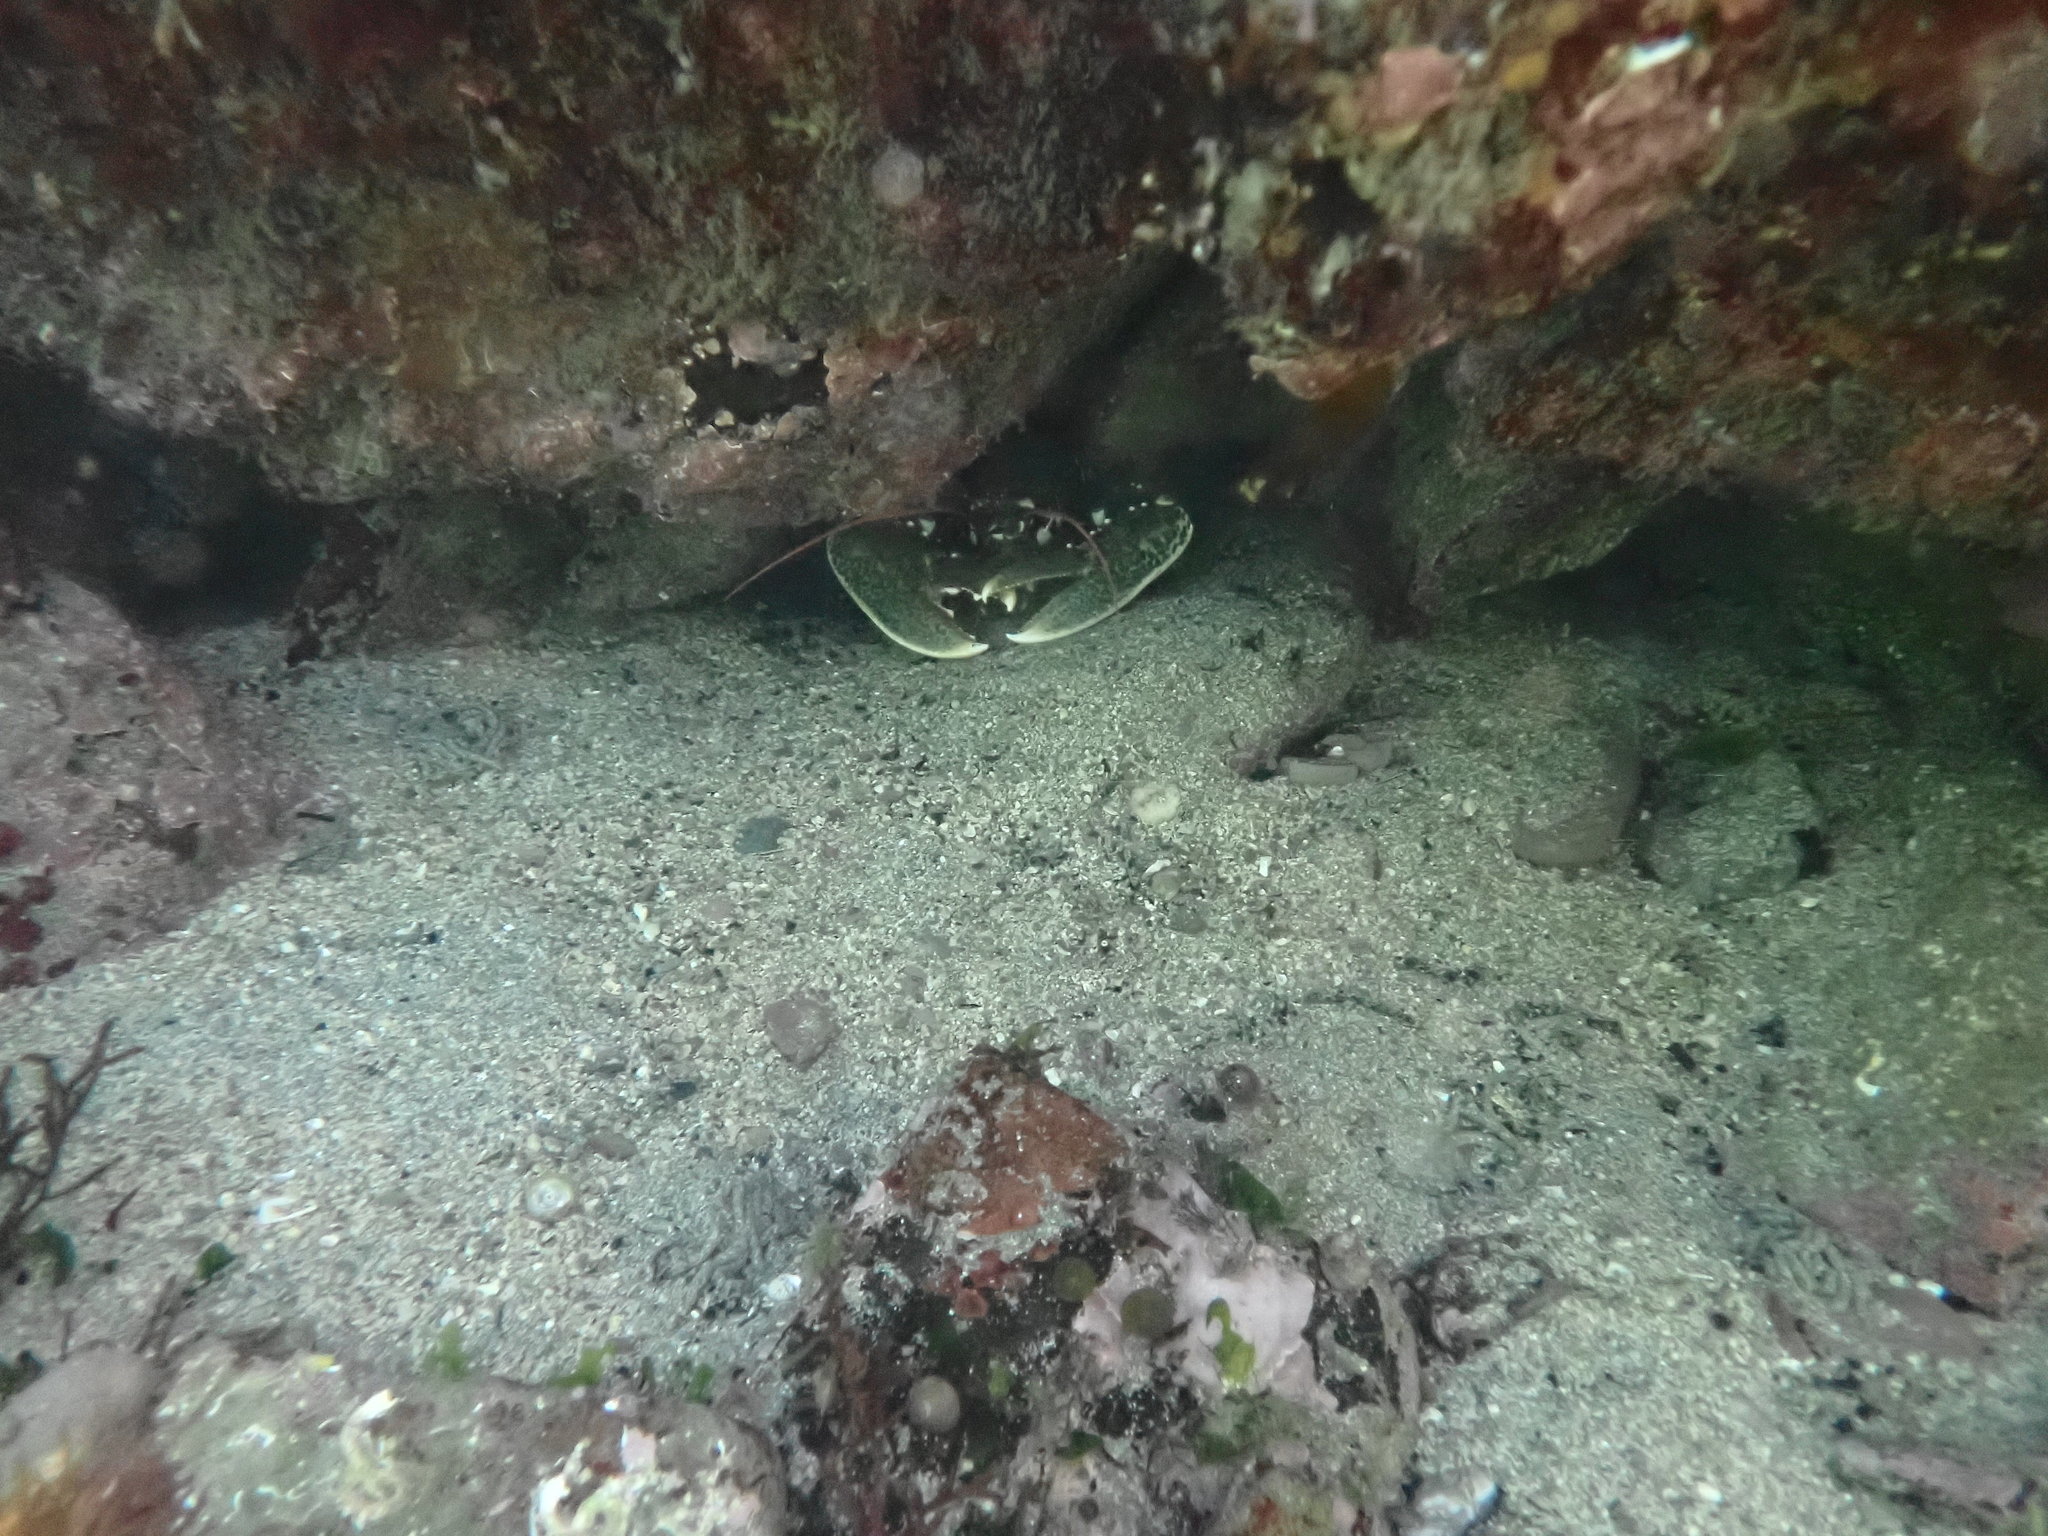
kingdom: Animalia
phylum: Arthropoda
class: Malacostraca
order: Decapoda
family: Nephropidae
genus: Homarus
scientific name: Homarus gammarus
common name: European lobster
